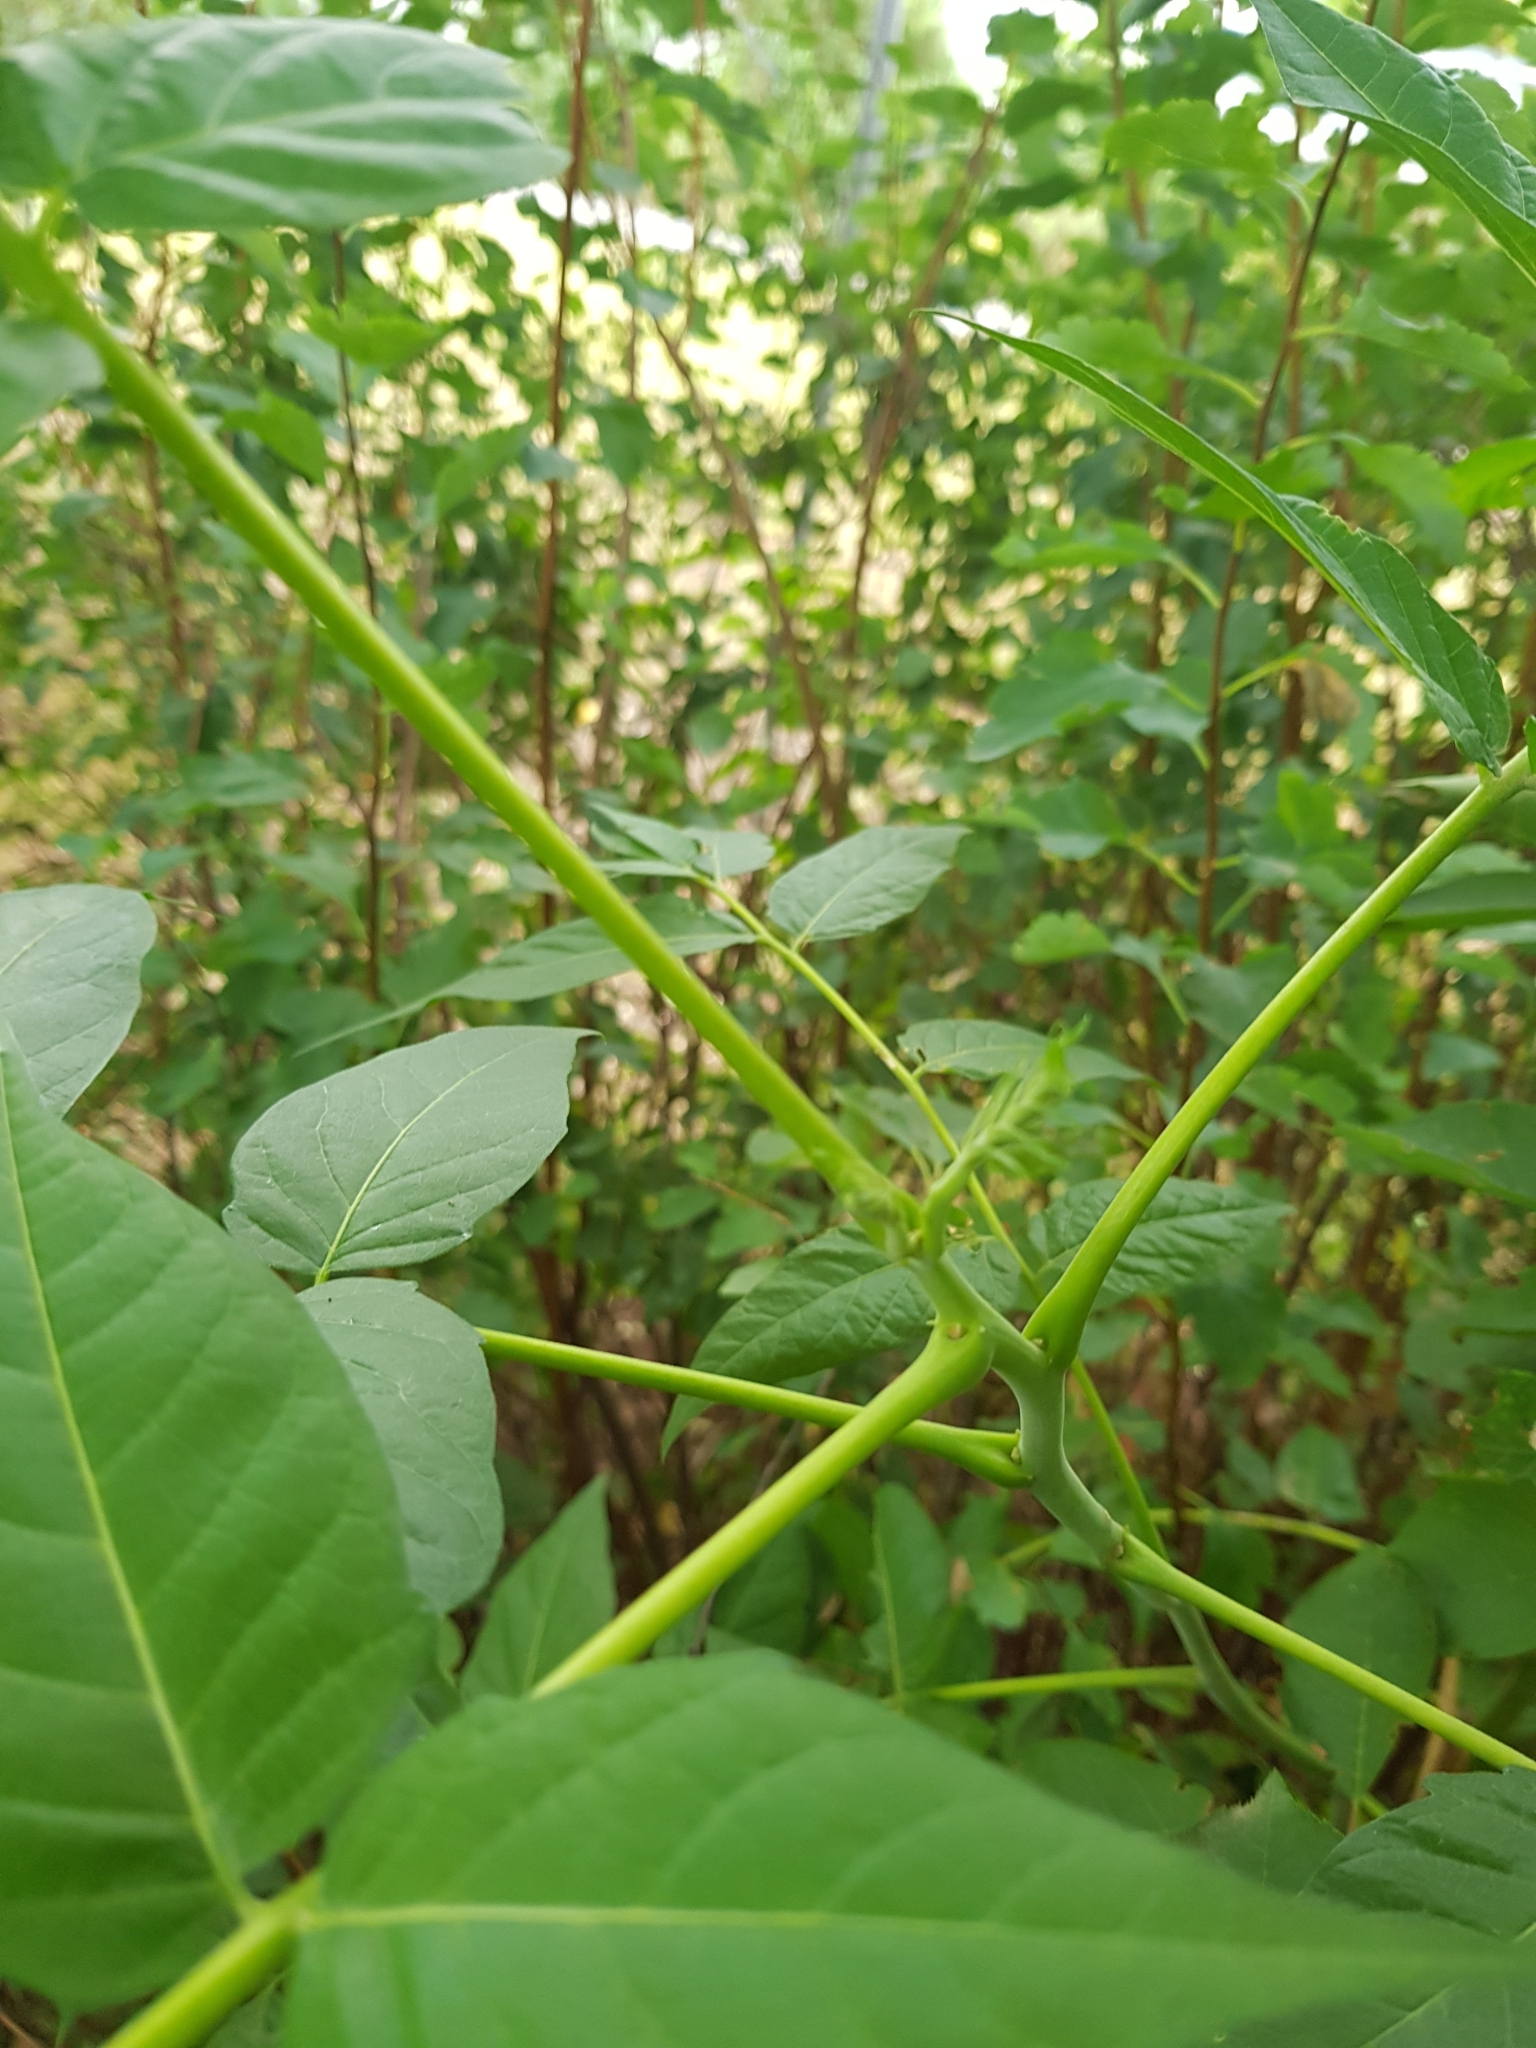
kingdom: Plantae
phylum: Tracheophyta
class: Magnoliopsida
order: Sapindales
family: Simaroubaceae
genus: Ailanthus
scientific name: Ailanthus altissima
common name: Tree-of-heaven
